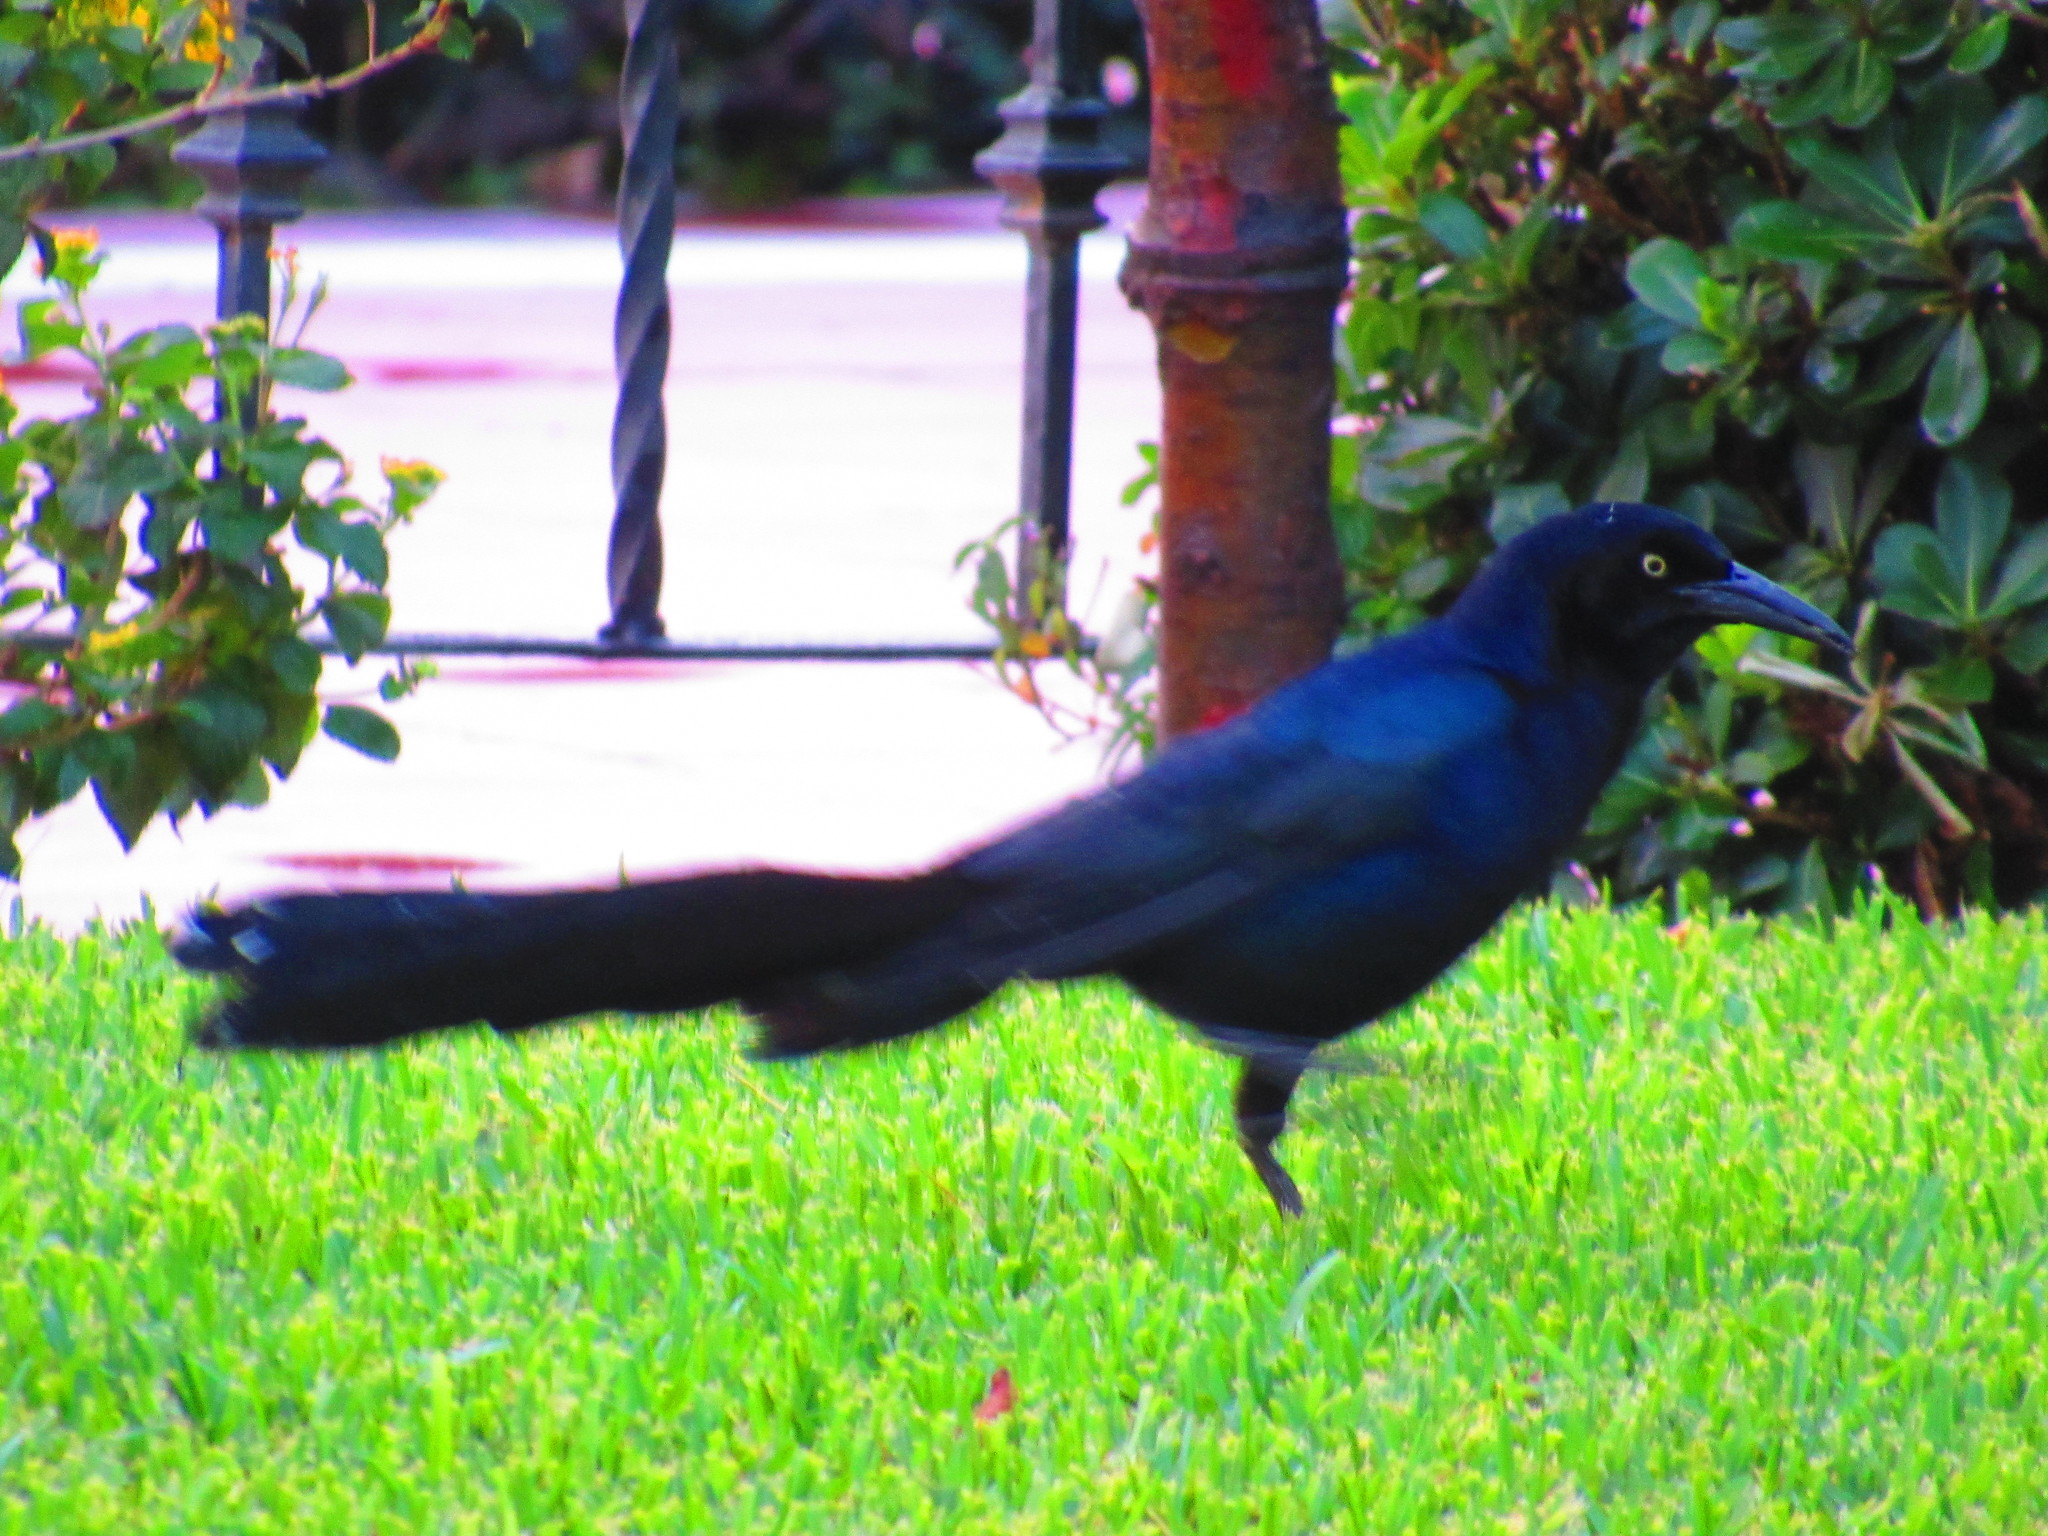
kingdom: Animalia
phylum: Chordata
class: Aves
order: Passeriformes
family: Icteridae
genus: Quiscalus
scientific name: Quiscalus mexicanus
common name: Great-tailed grackle
